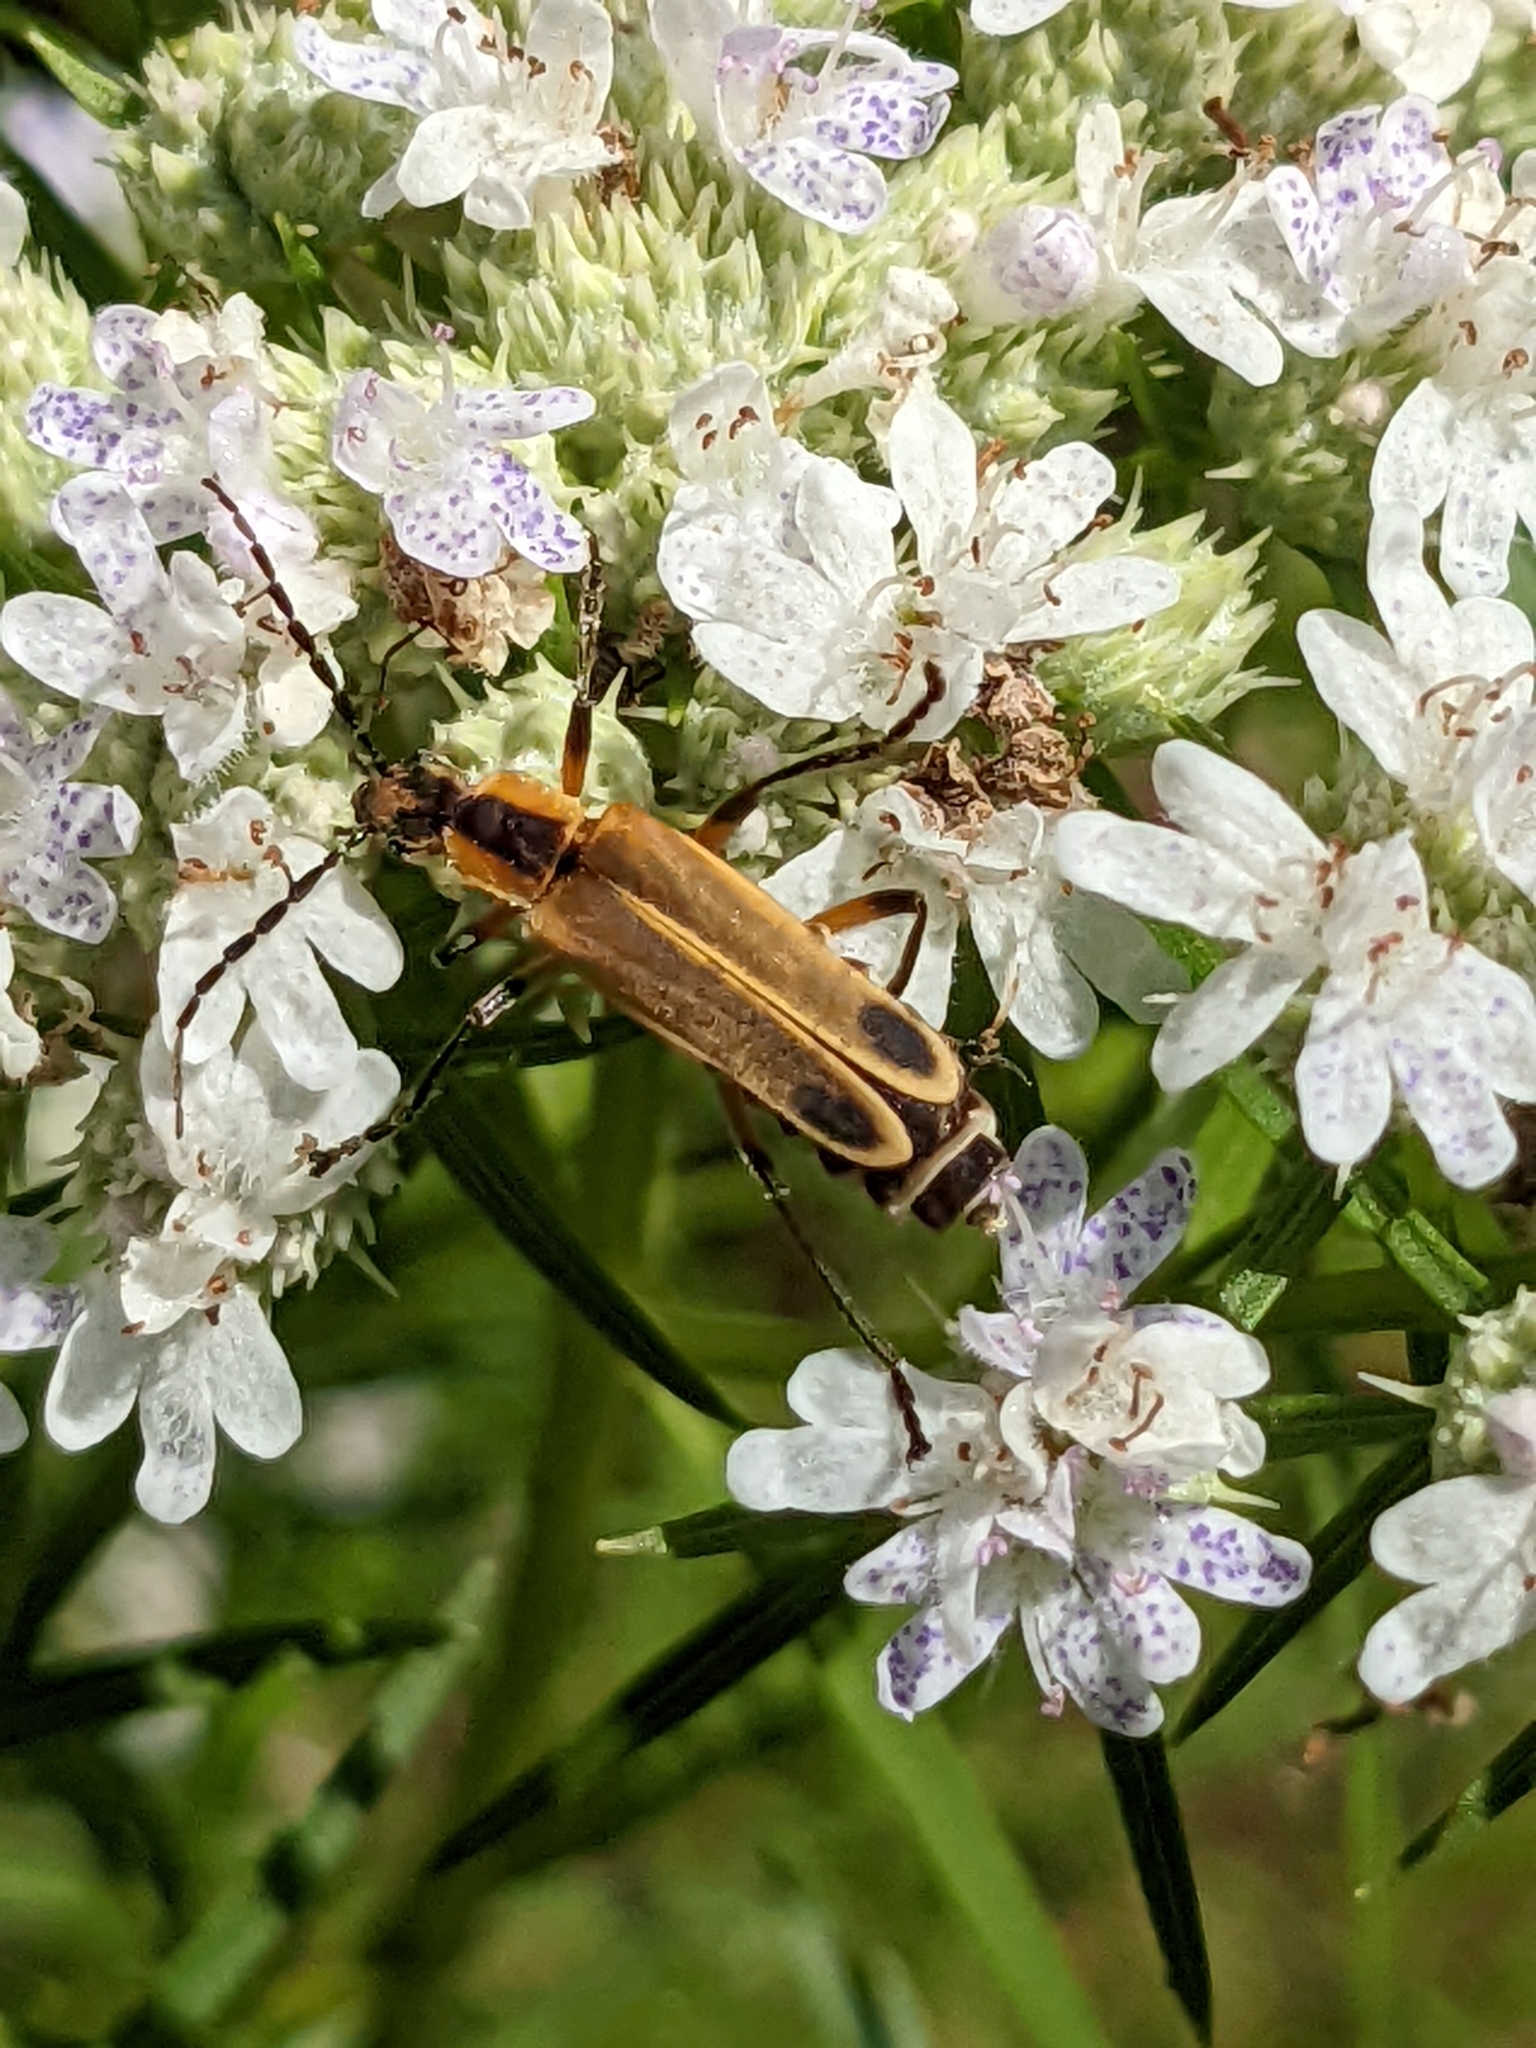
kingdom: Animalia
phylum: Arthropoda
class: Insecta
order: Coleoptera
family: Cantharidae
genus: Chauliognathus
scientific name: Chauliognathus marginatus
